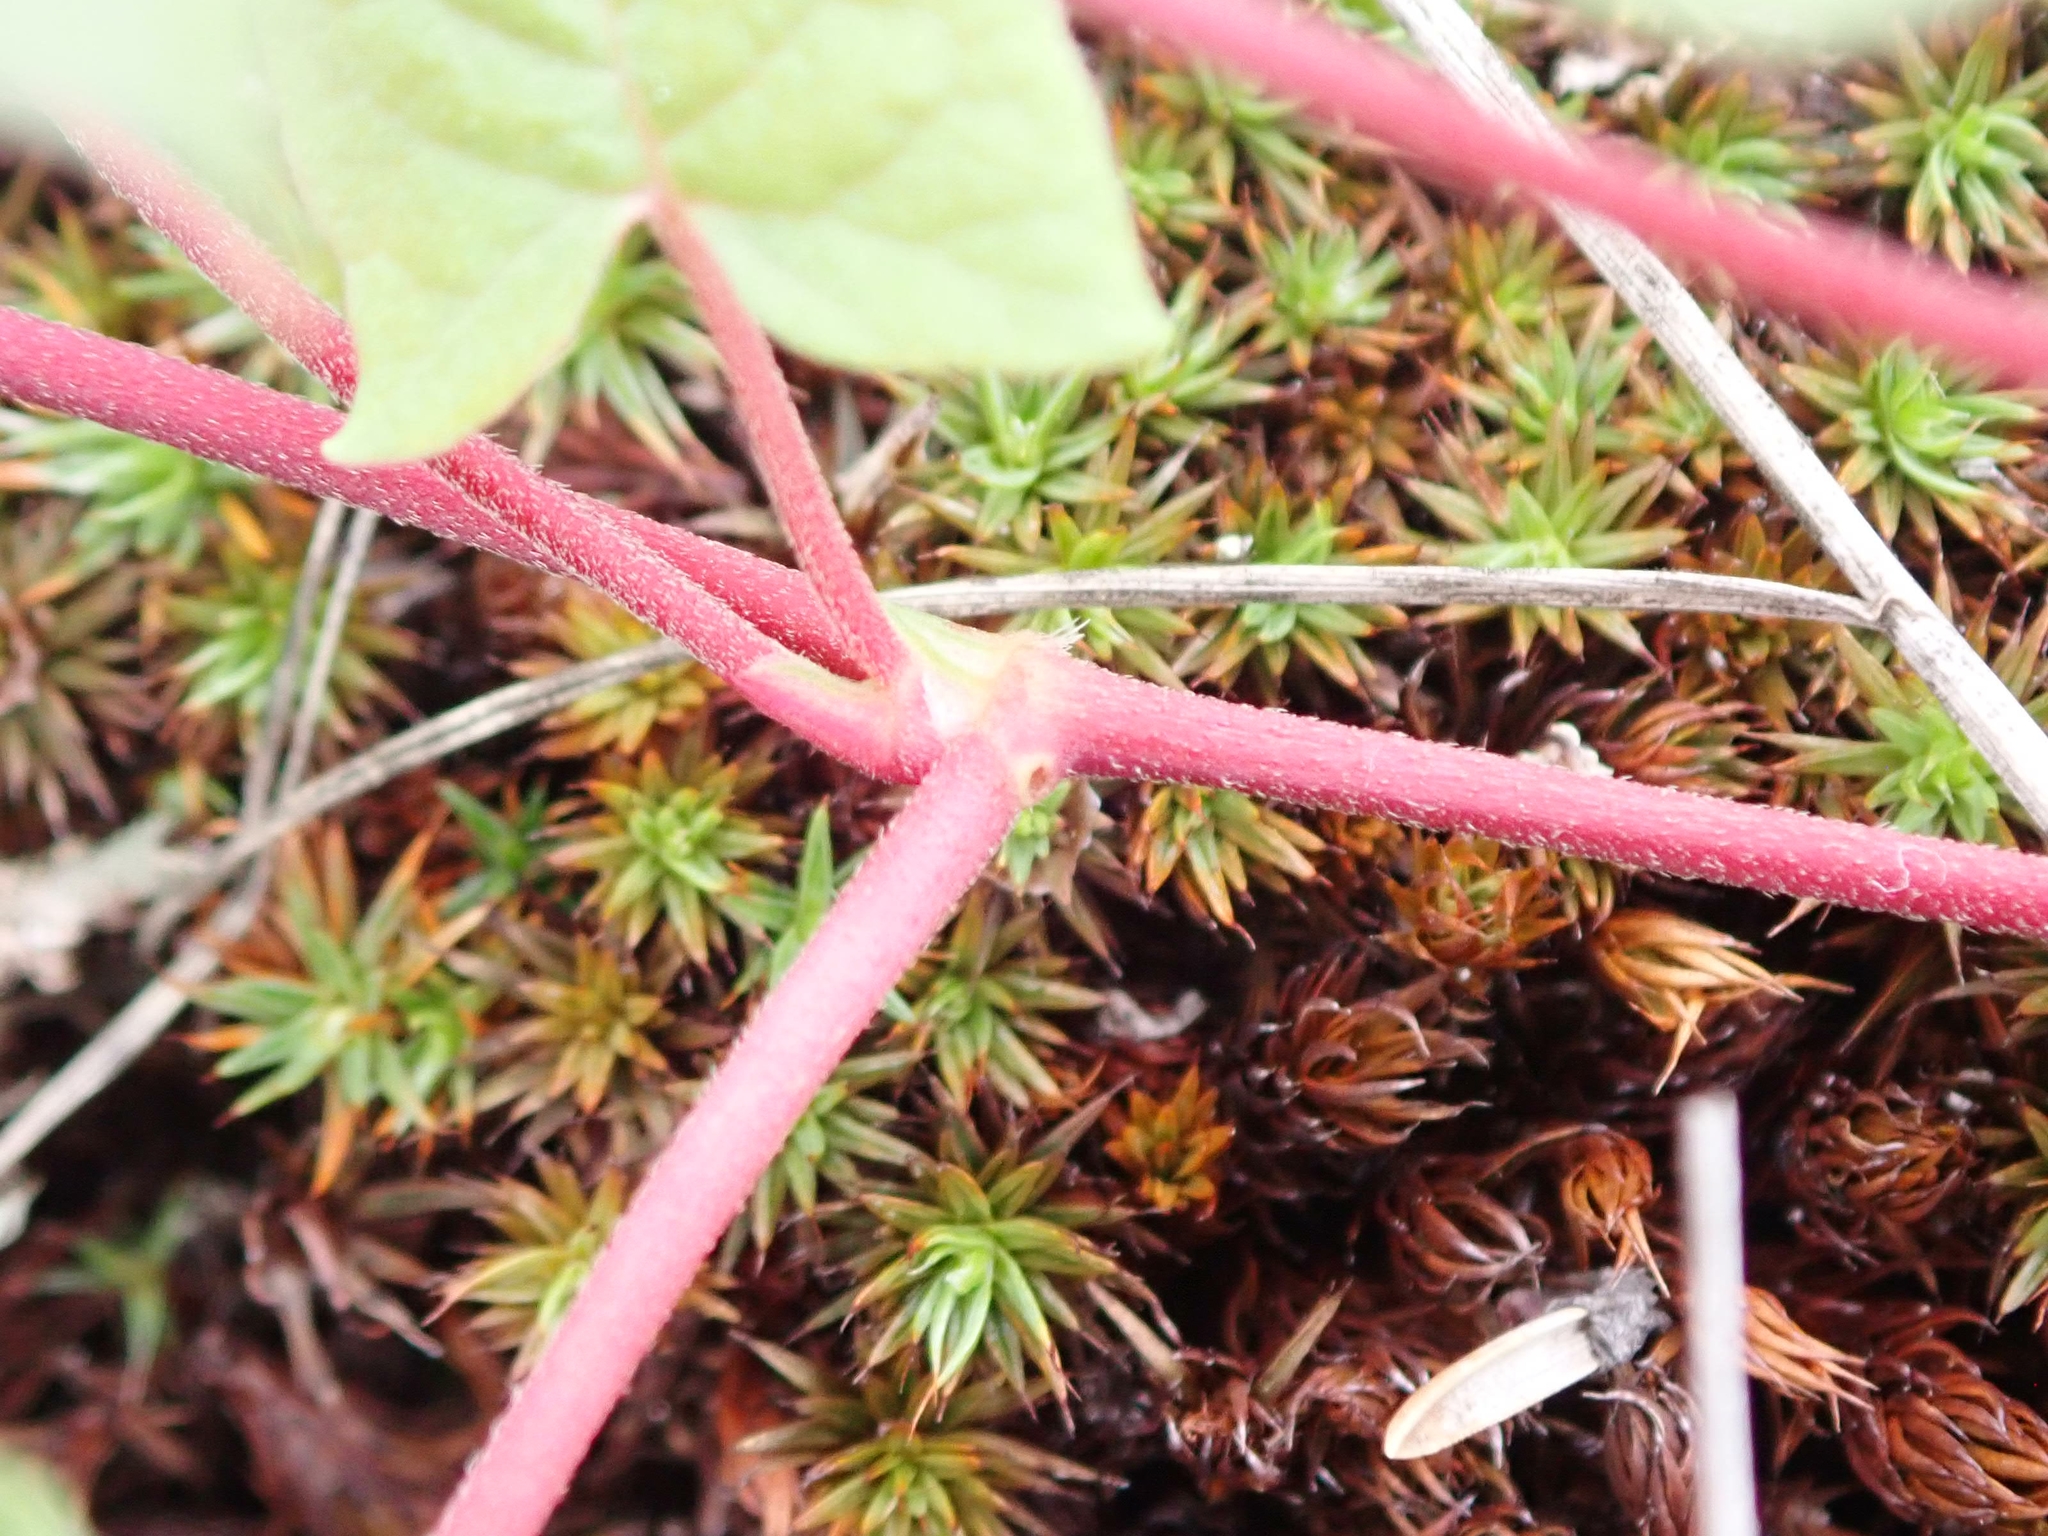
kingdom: Plantae
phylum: Tracheophyta
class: Magnoliopsida
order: Caryophyllales
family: Polygonaceae
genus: Parogonum
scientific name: Parogonum ciliinode
